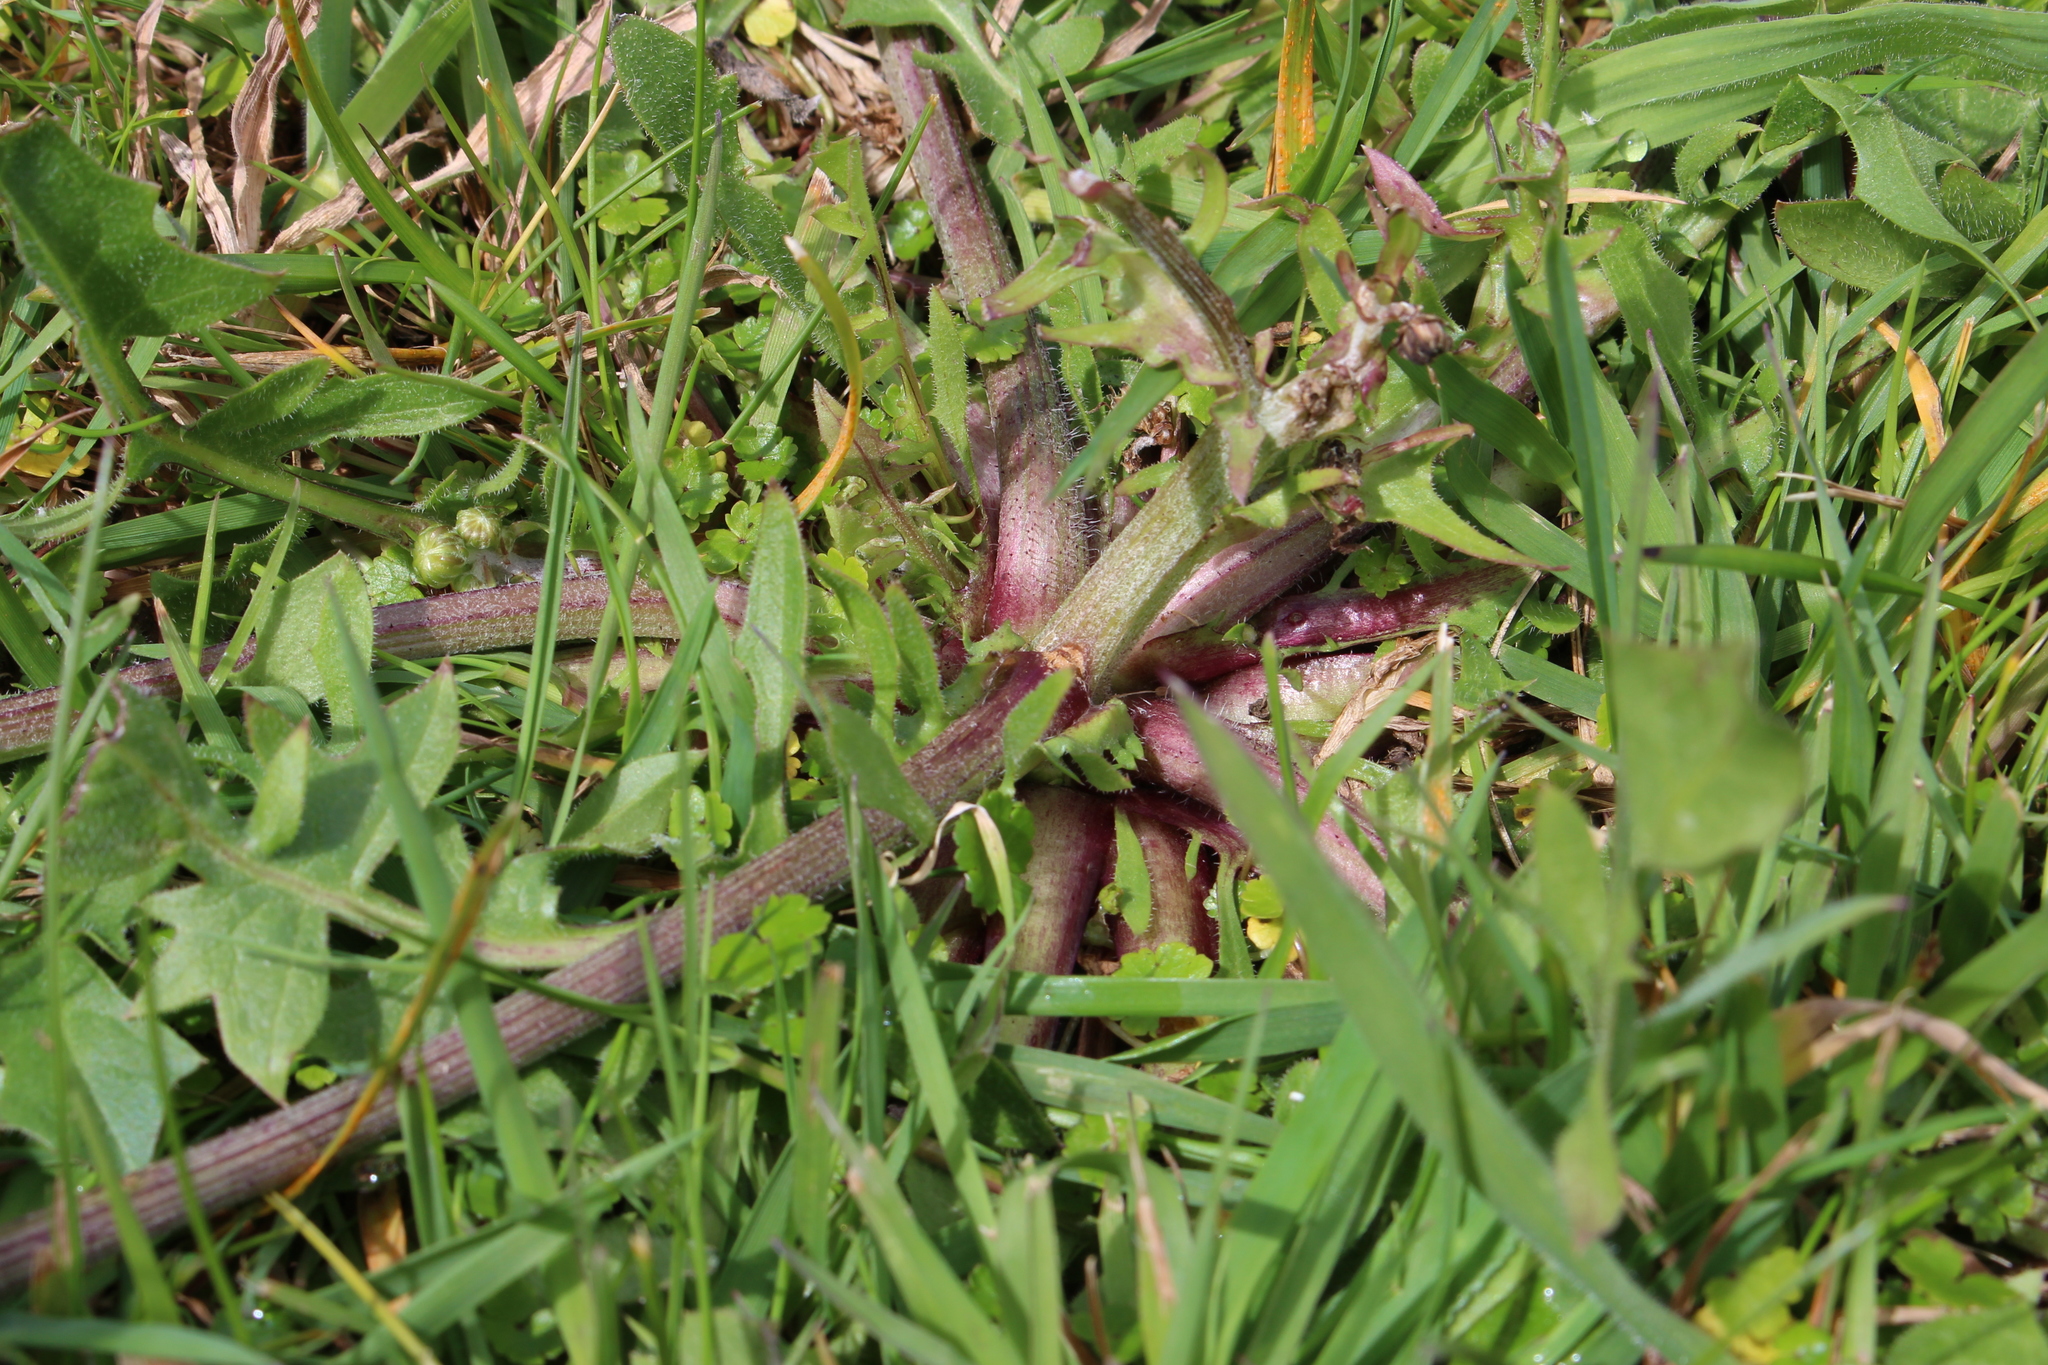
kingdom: Plantae
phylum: Tracheophyta
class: Magnoliopsida
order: Asterales
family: Asteraceae
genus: Thrincia
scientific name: Thrincia saxatilis
